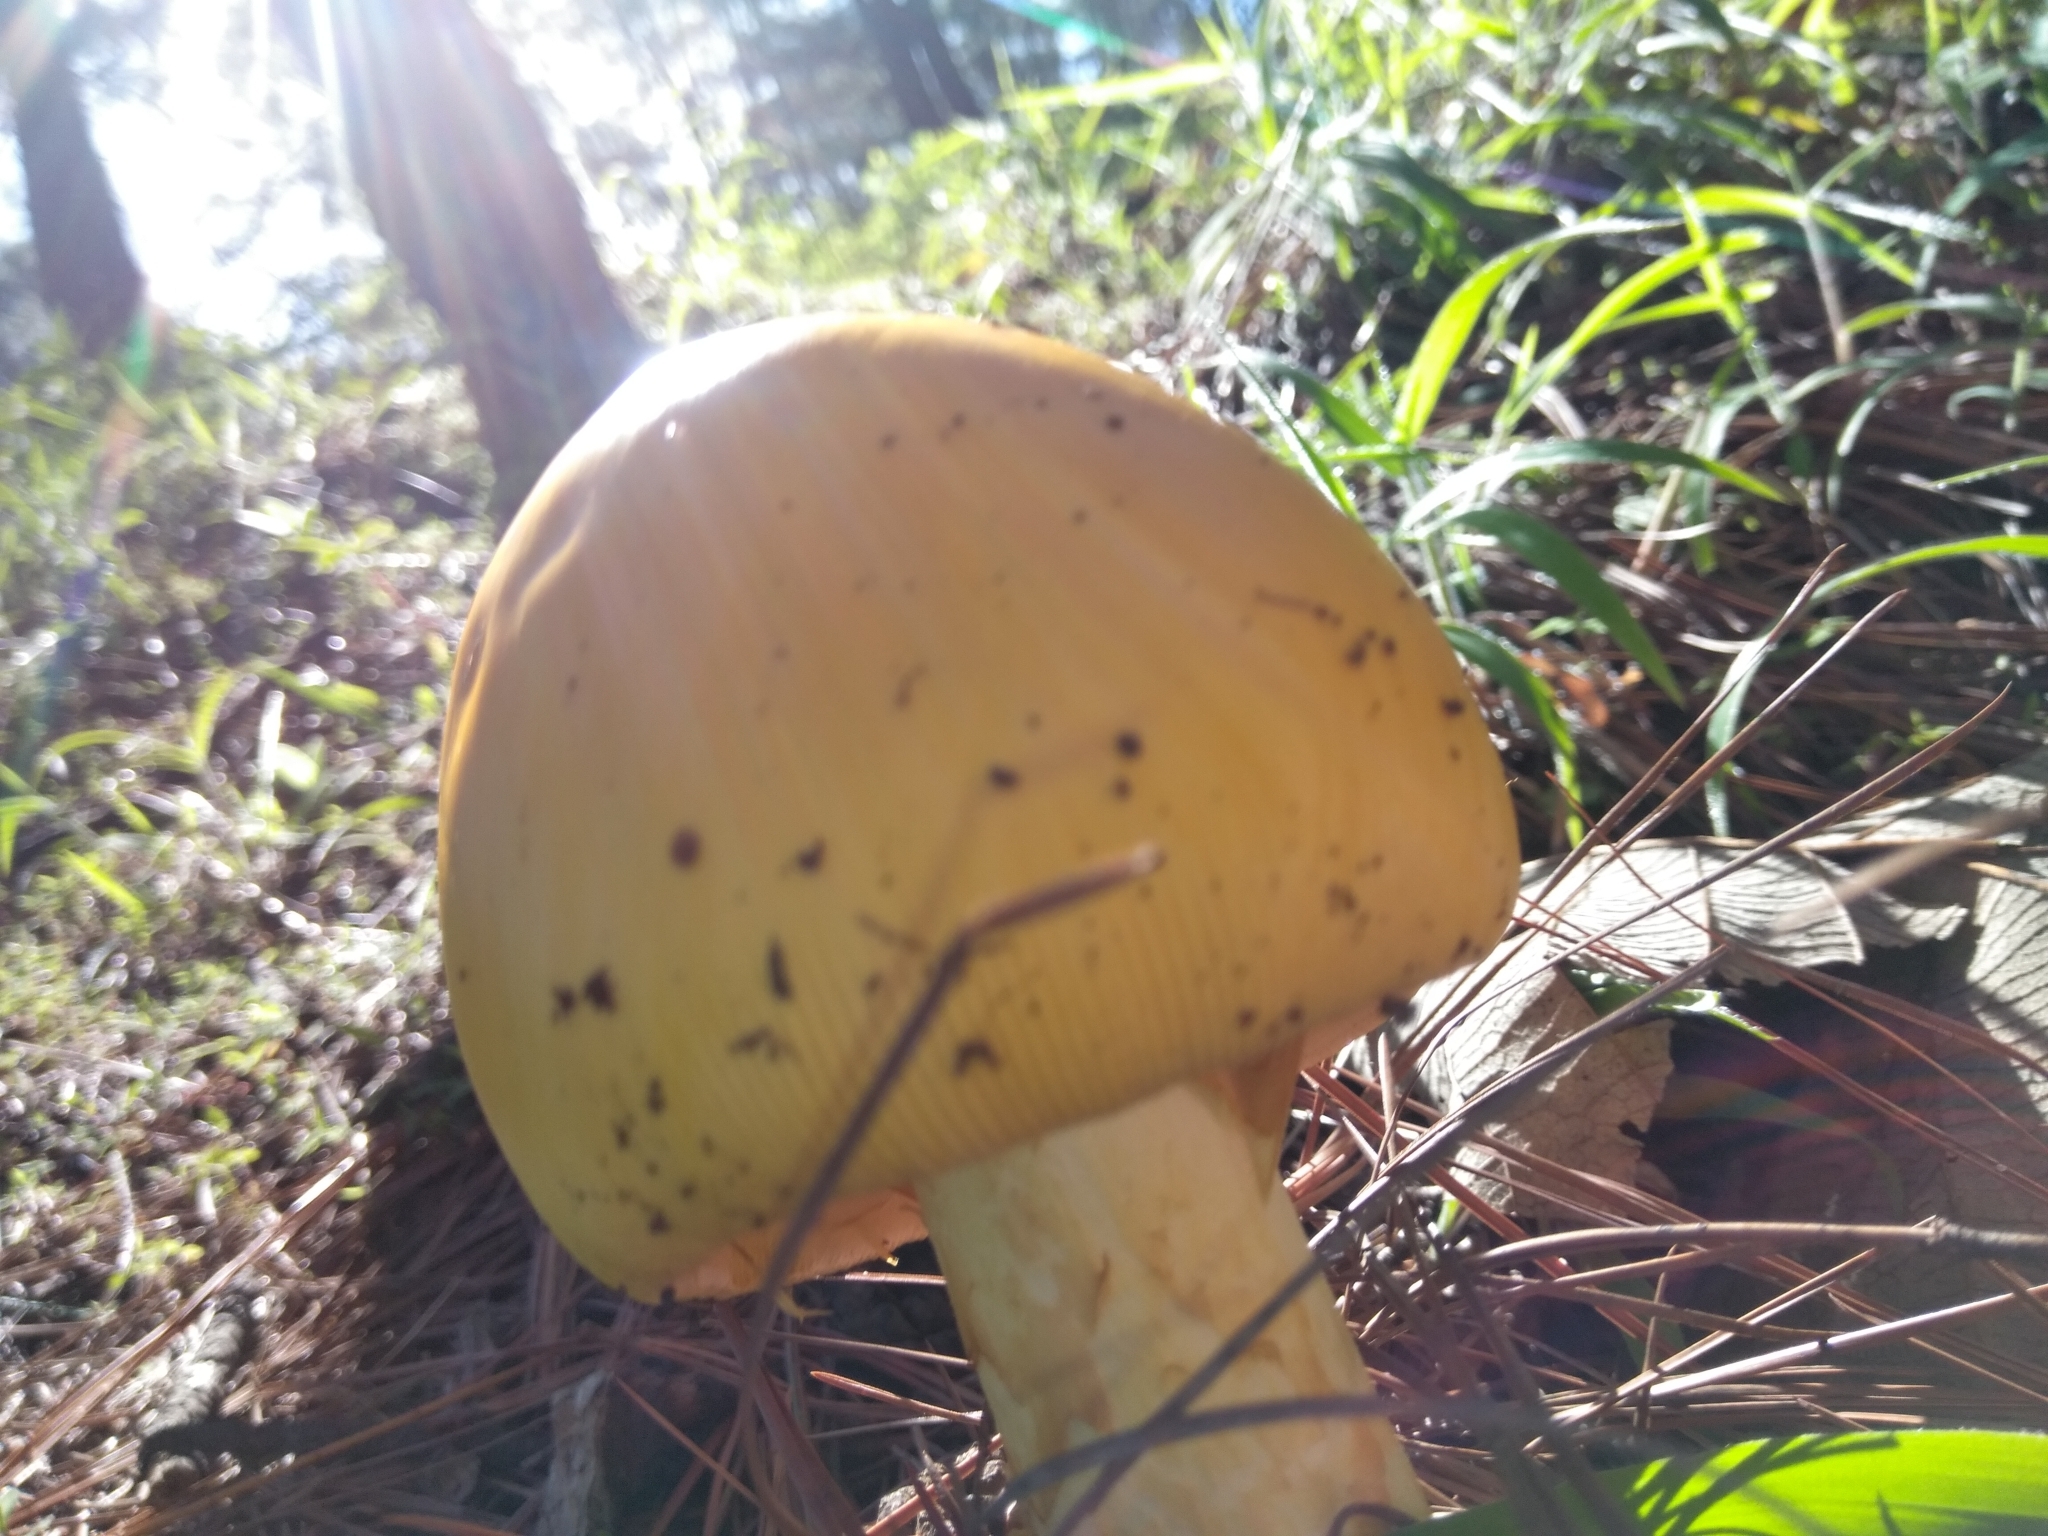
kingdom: Fungi
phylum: Basidiomycota
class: Agaricomycetes
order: Agaricales
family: Amanitaceae
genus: Amanita
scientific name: Amanita basii
